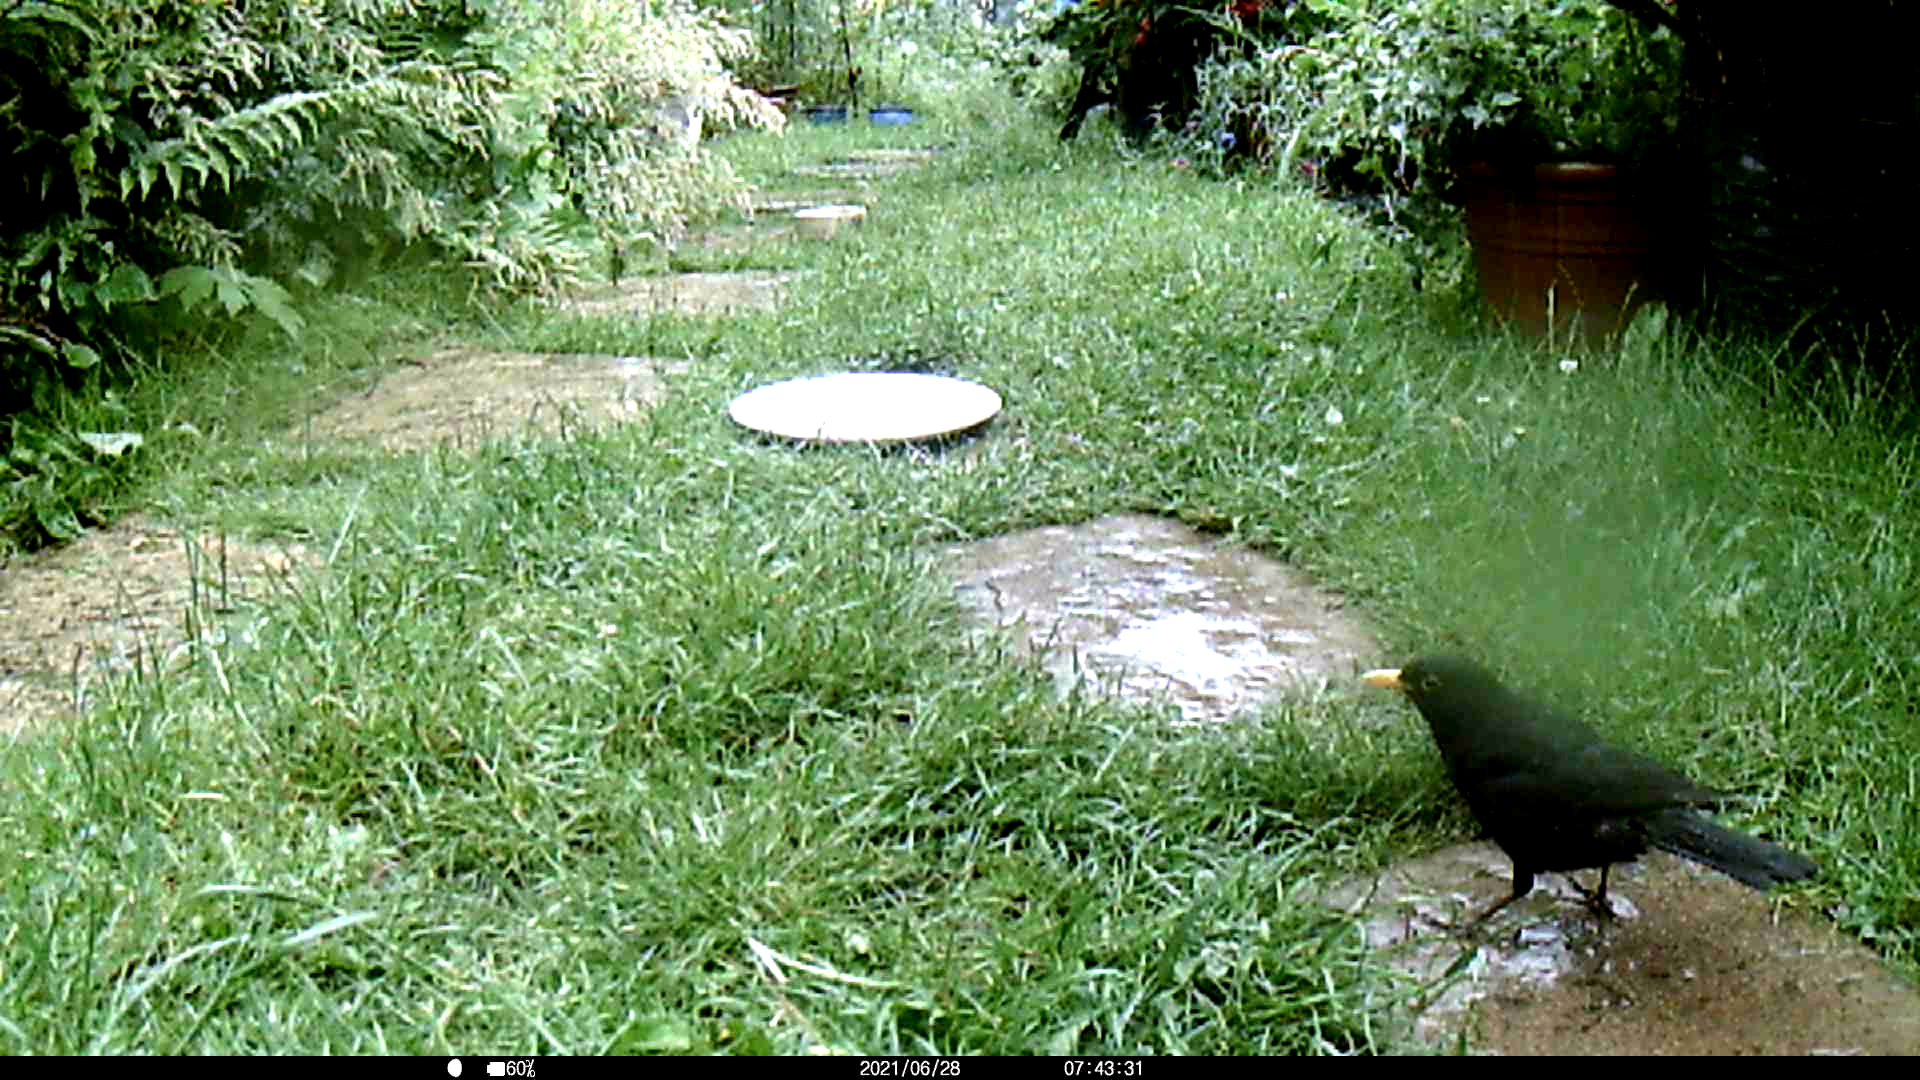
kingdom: Animalia
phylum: Chordata
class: Aves
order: Passeriformes
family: Turdidae
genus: Turdus
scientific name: Turdus merula
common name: Common blackbird
